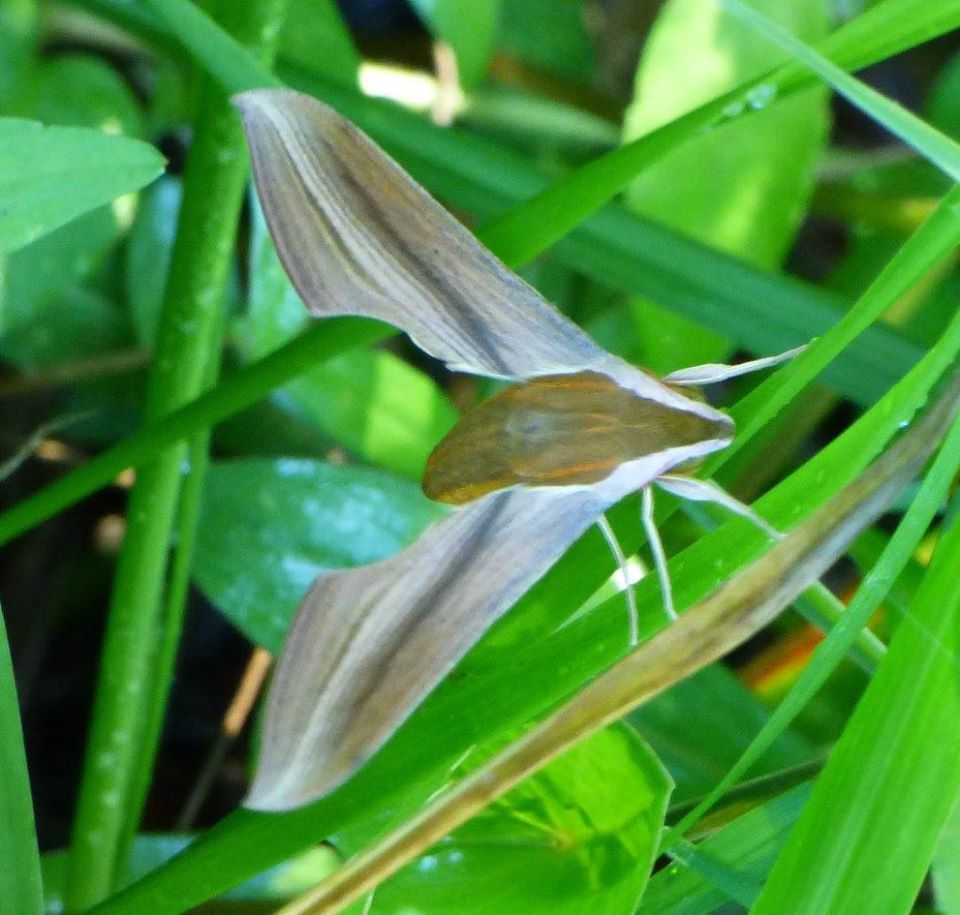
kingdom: Animalia
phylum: Arthropoda
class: Insecta
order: Lepidoptera
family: Sphingidae
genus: Xylophanes
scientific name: Xylophanes tersa
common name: Tersa sphinx
